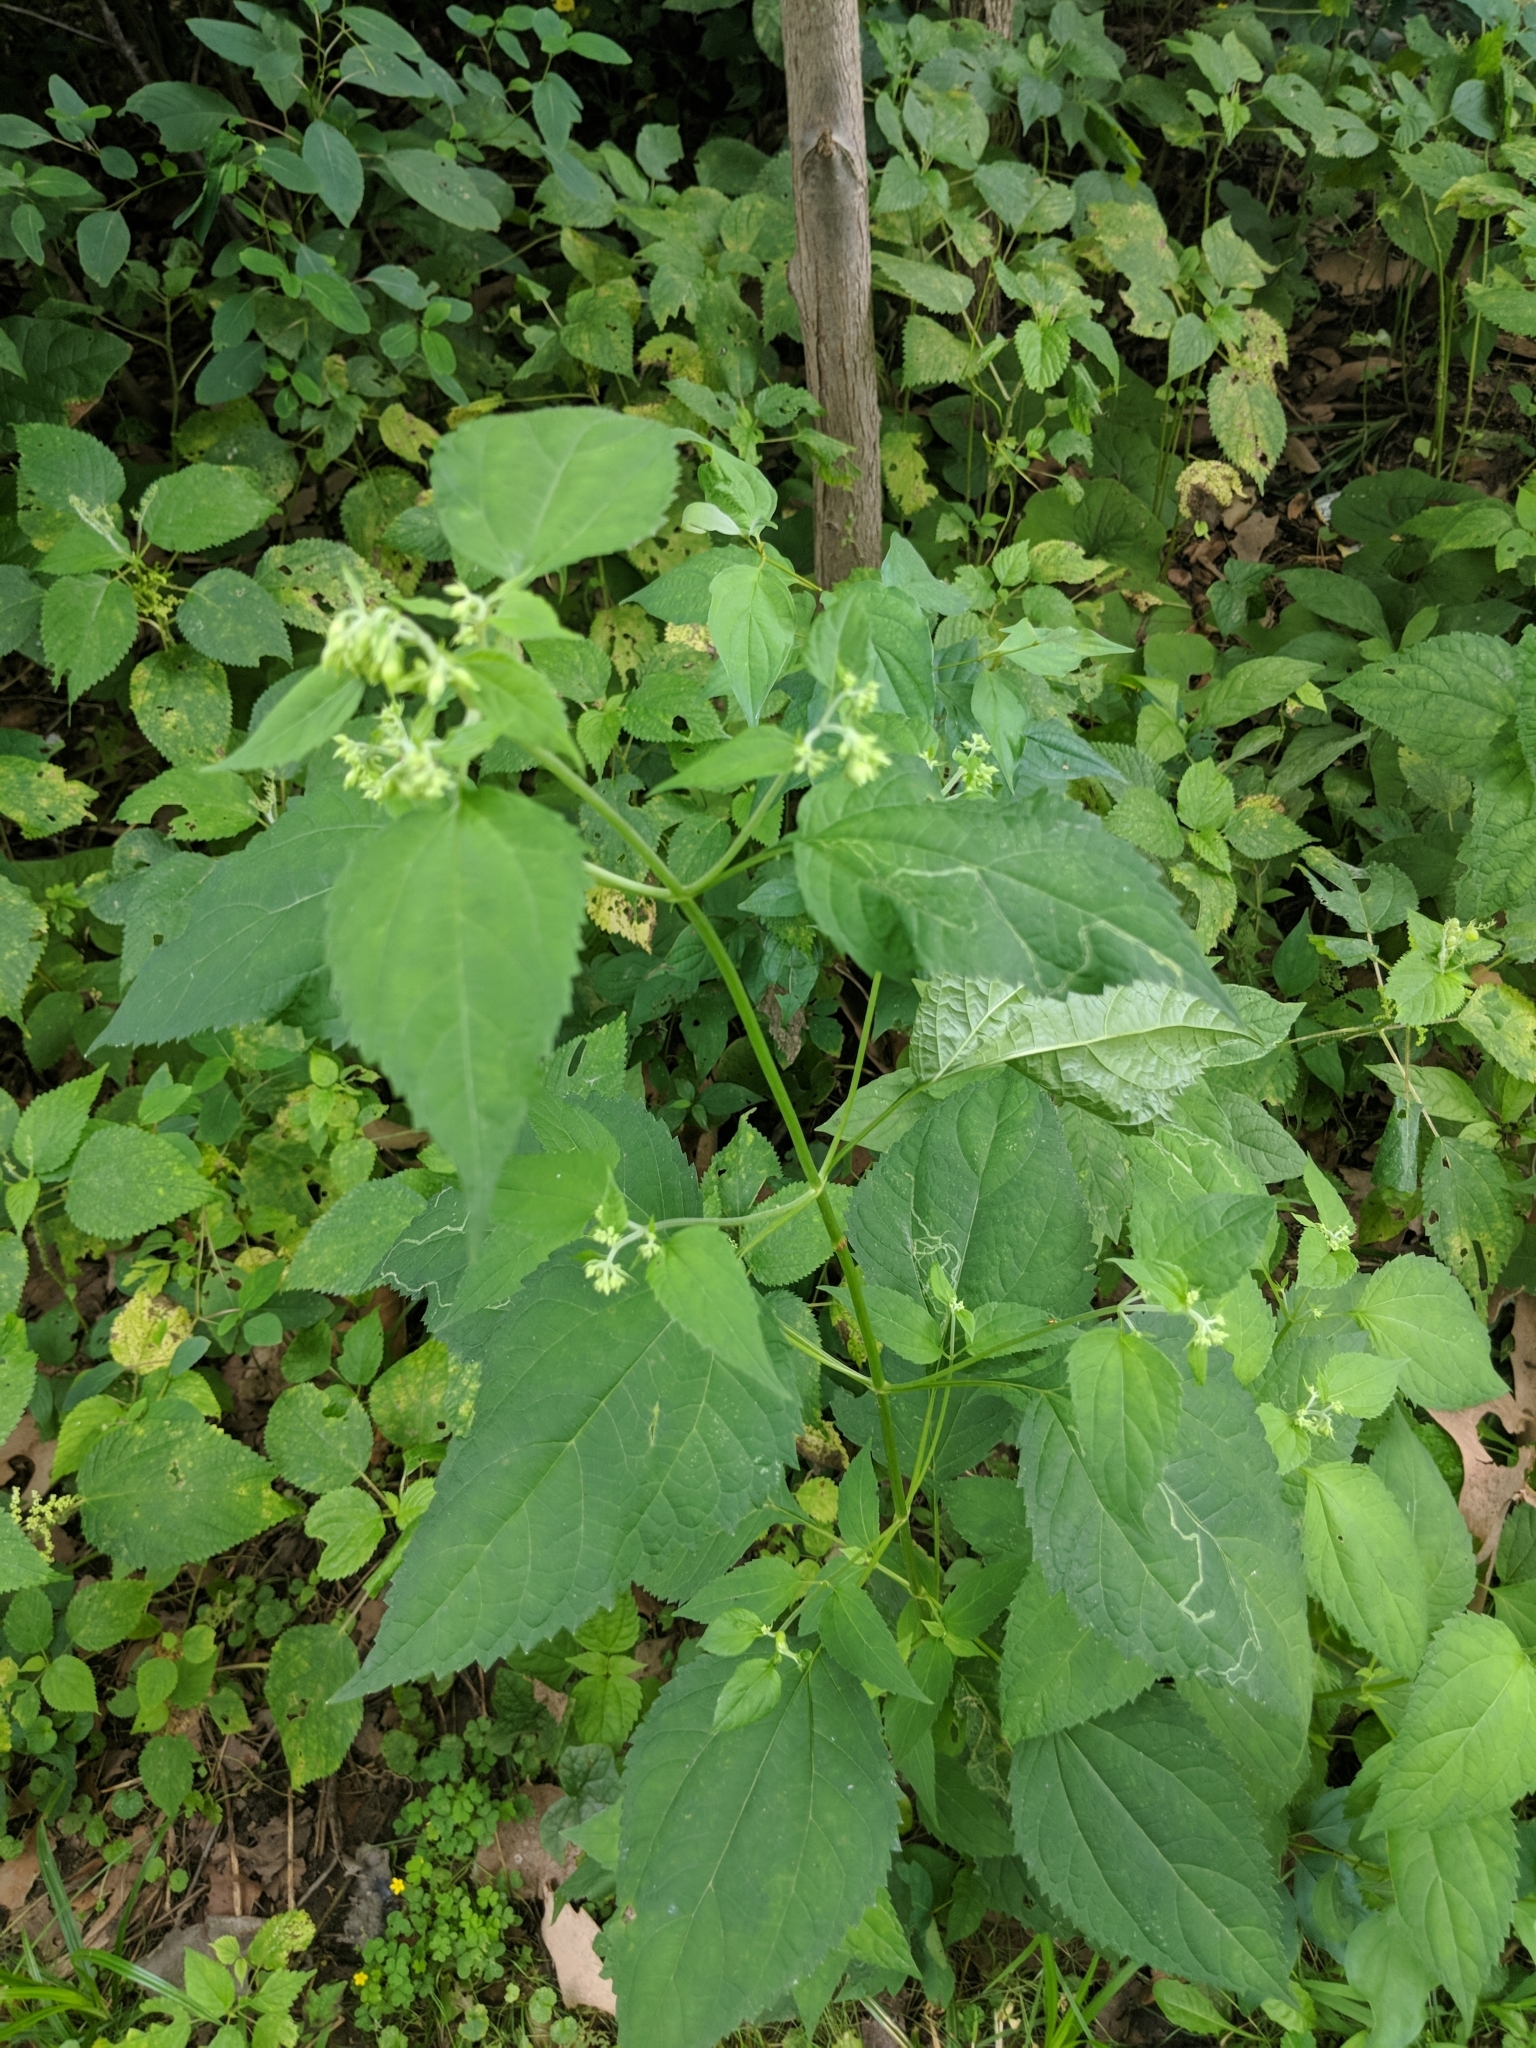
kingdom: Plantae
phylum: Tracheophyta
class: Magnoliopsida
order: Asterales
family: Asteraceae
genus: Ageratina
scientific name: Ageratina altissima
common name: White snakeroot
